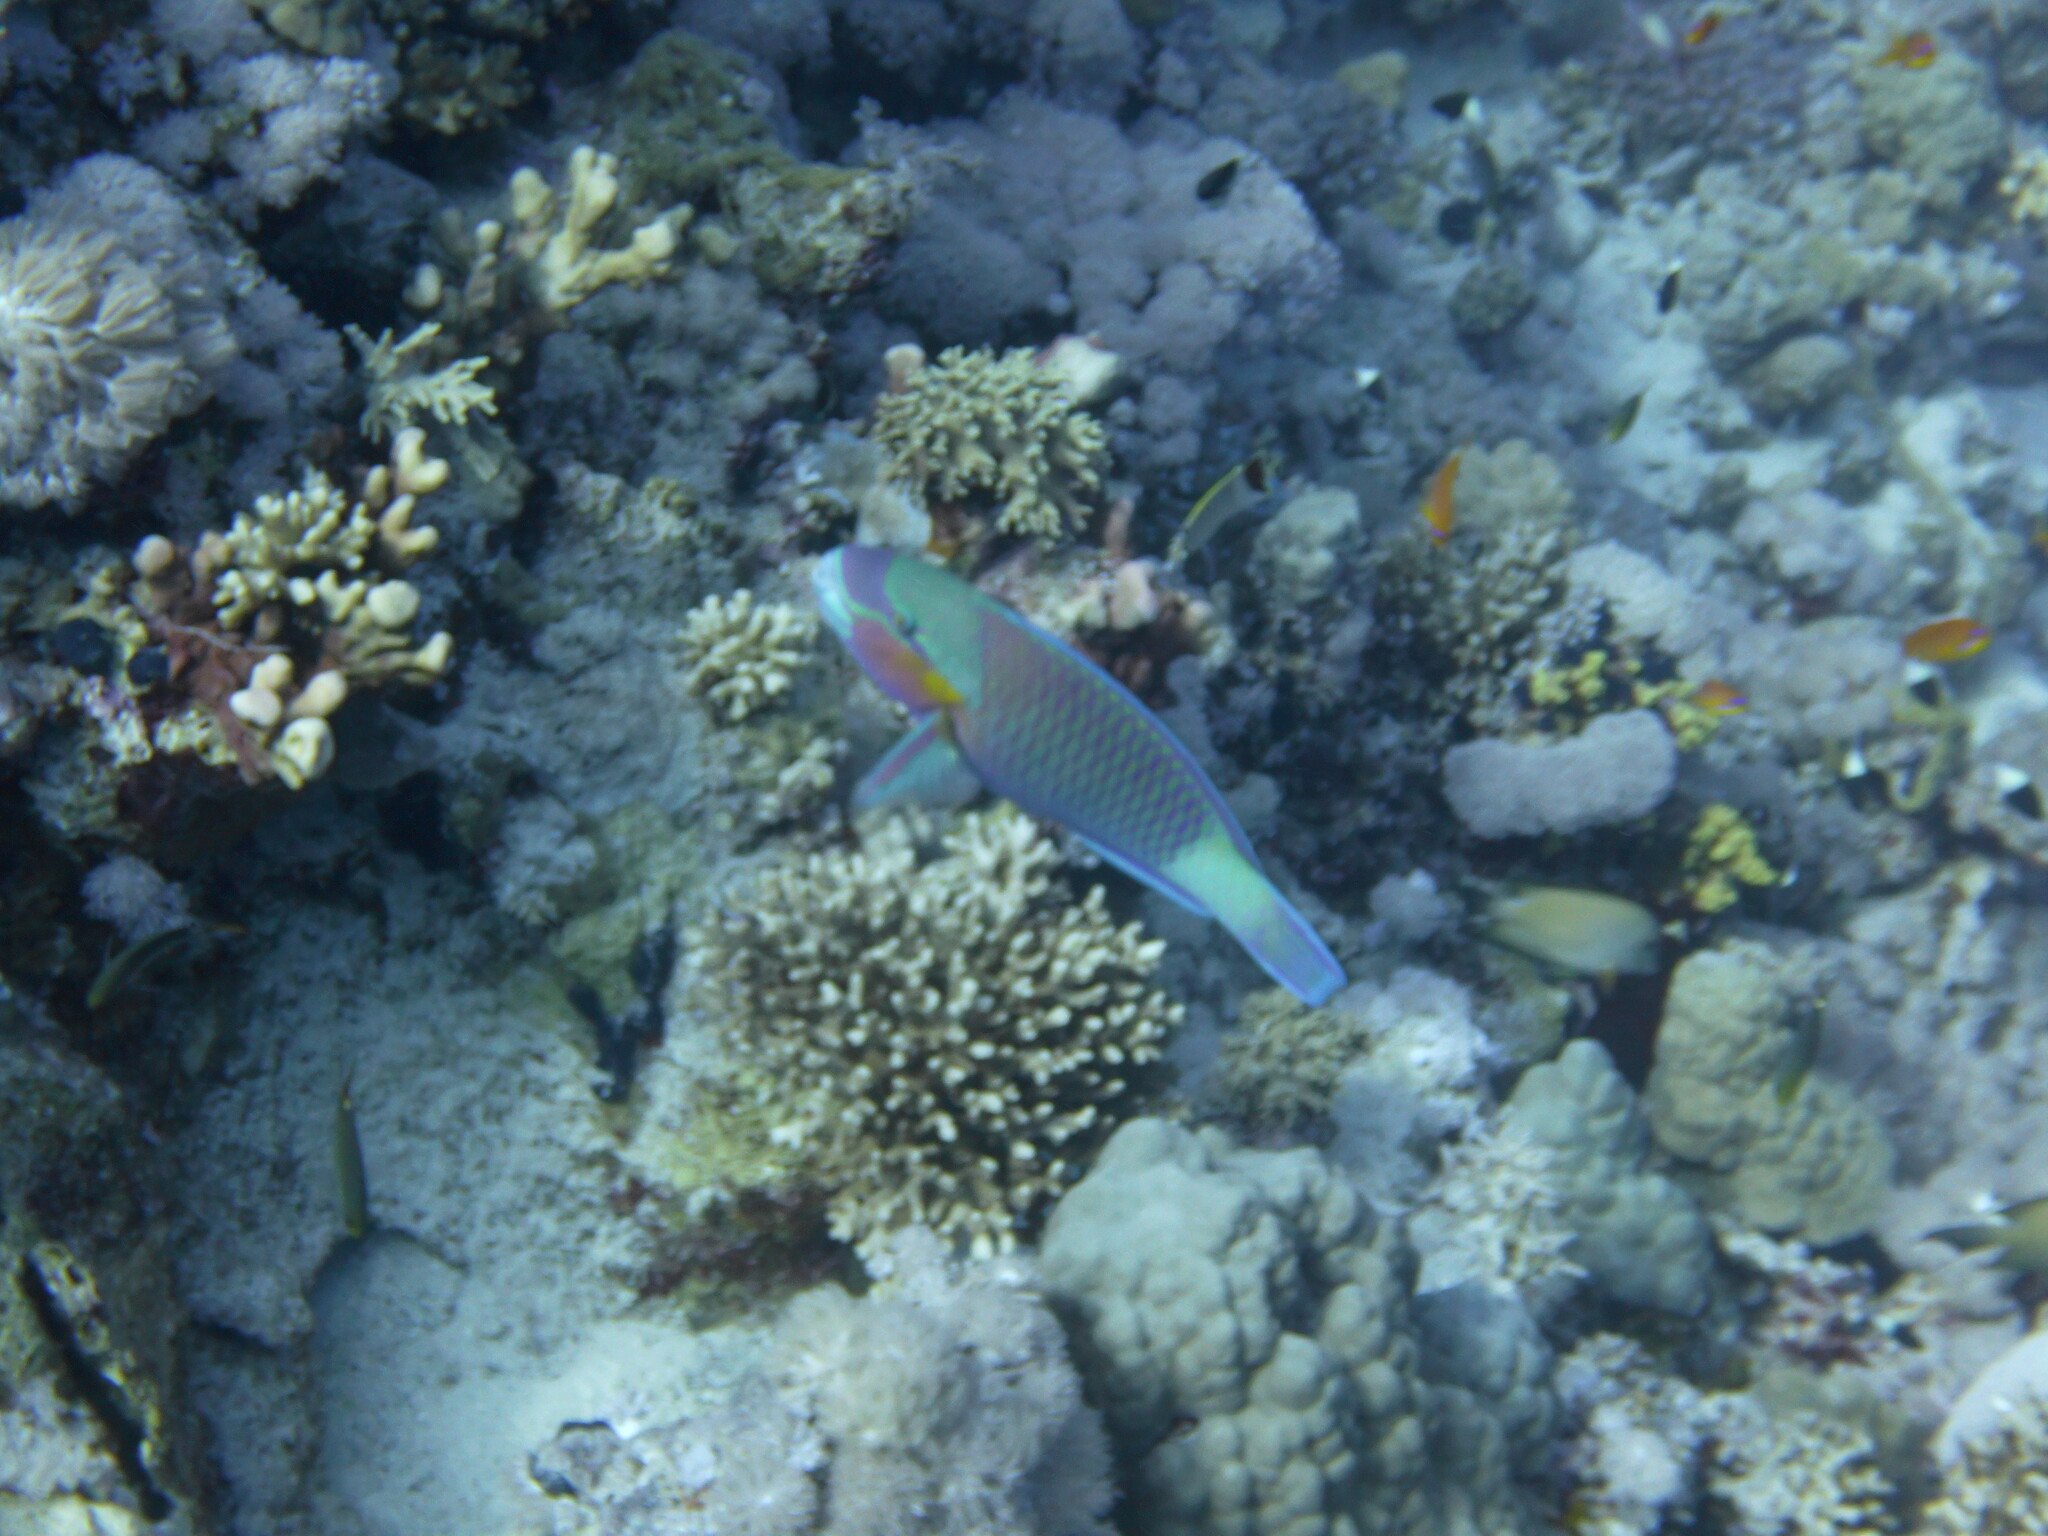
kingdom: Animalia
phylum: Chordata
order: Perciformes
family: Scaridae
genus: Chlorurus
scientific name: Chlorurus sordidus
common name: Bullethead parrotfish
